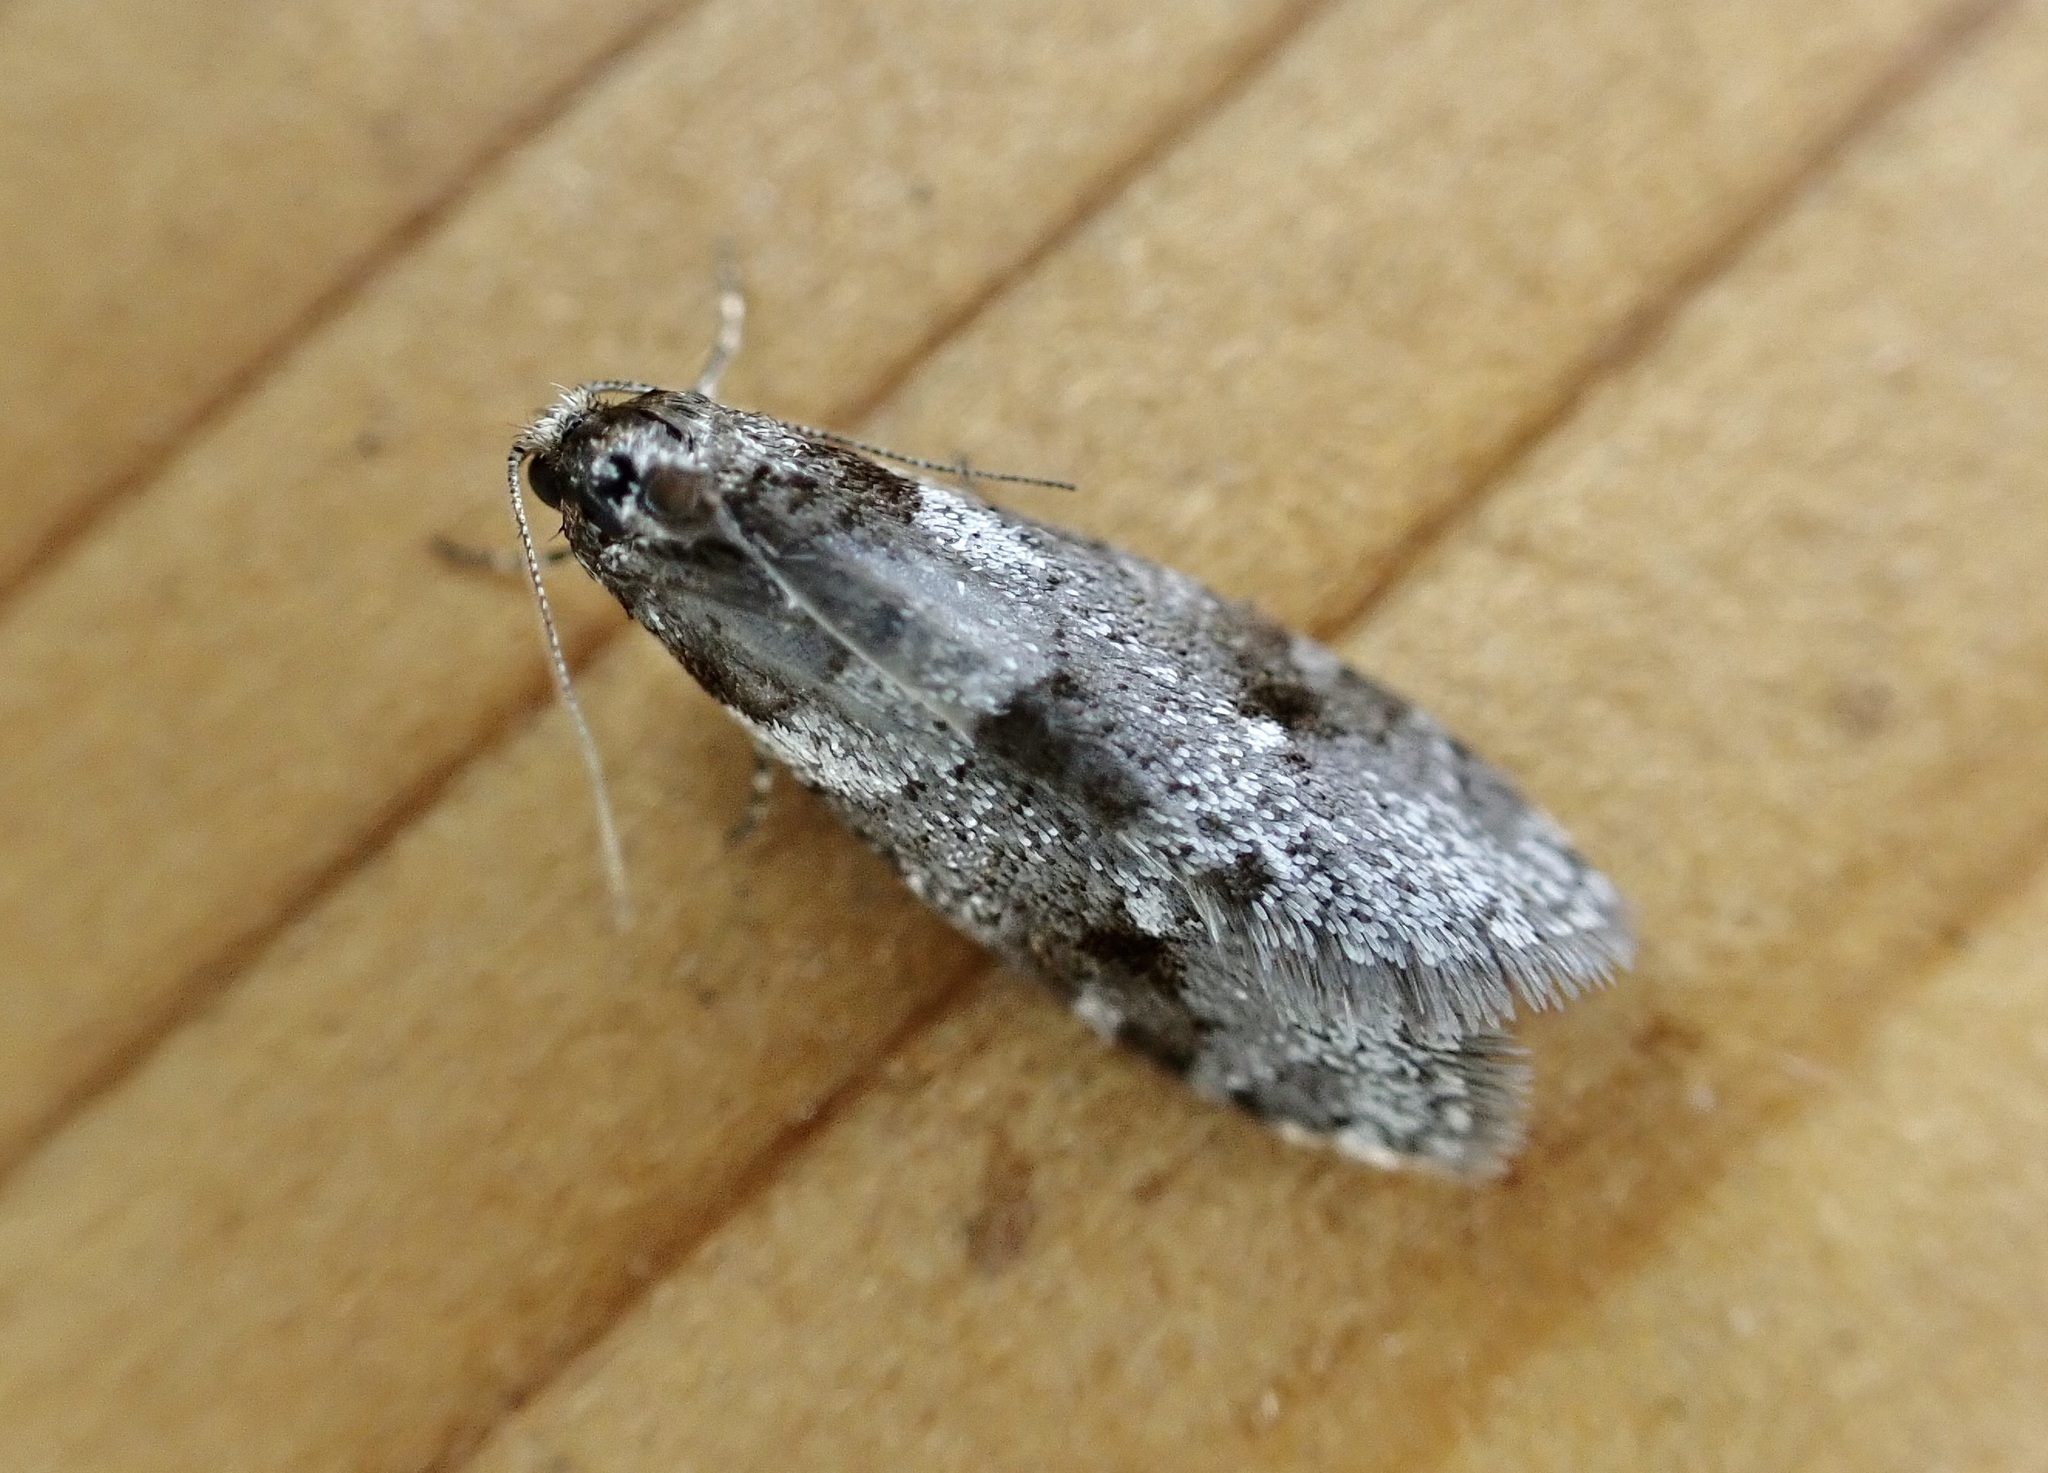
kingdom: Animalia
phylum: Arthropoda
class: Insecta
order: Lepidoptera
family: Psychidae
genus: Lepidoscia
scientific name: Lepidoscia heliochares
